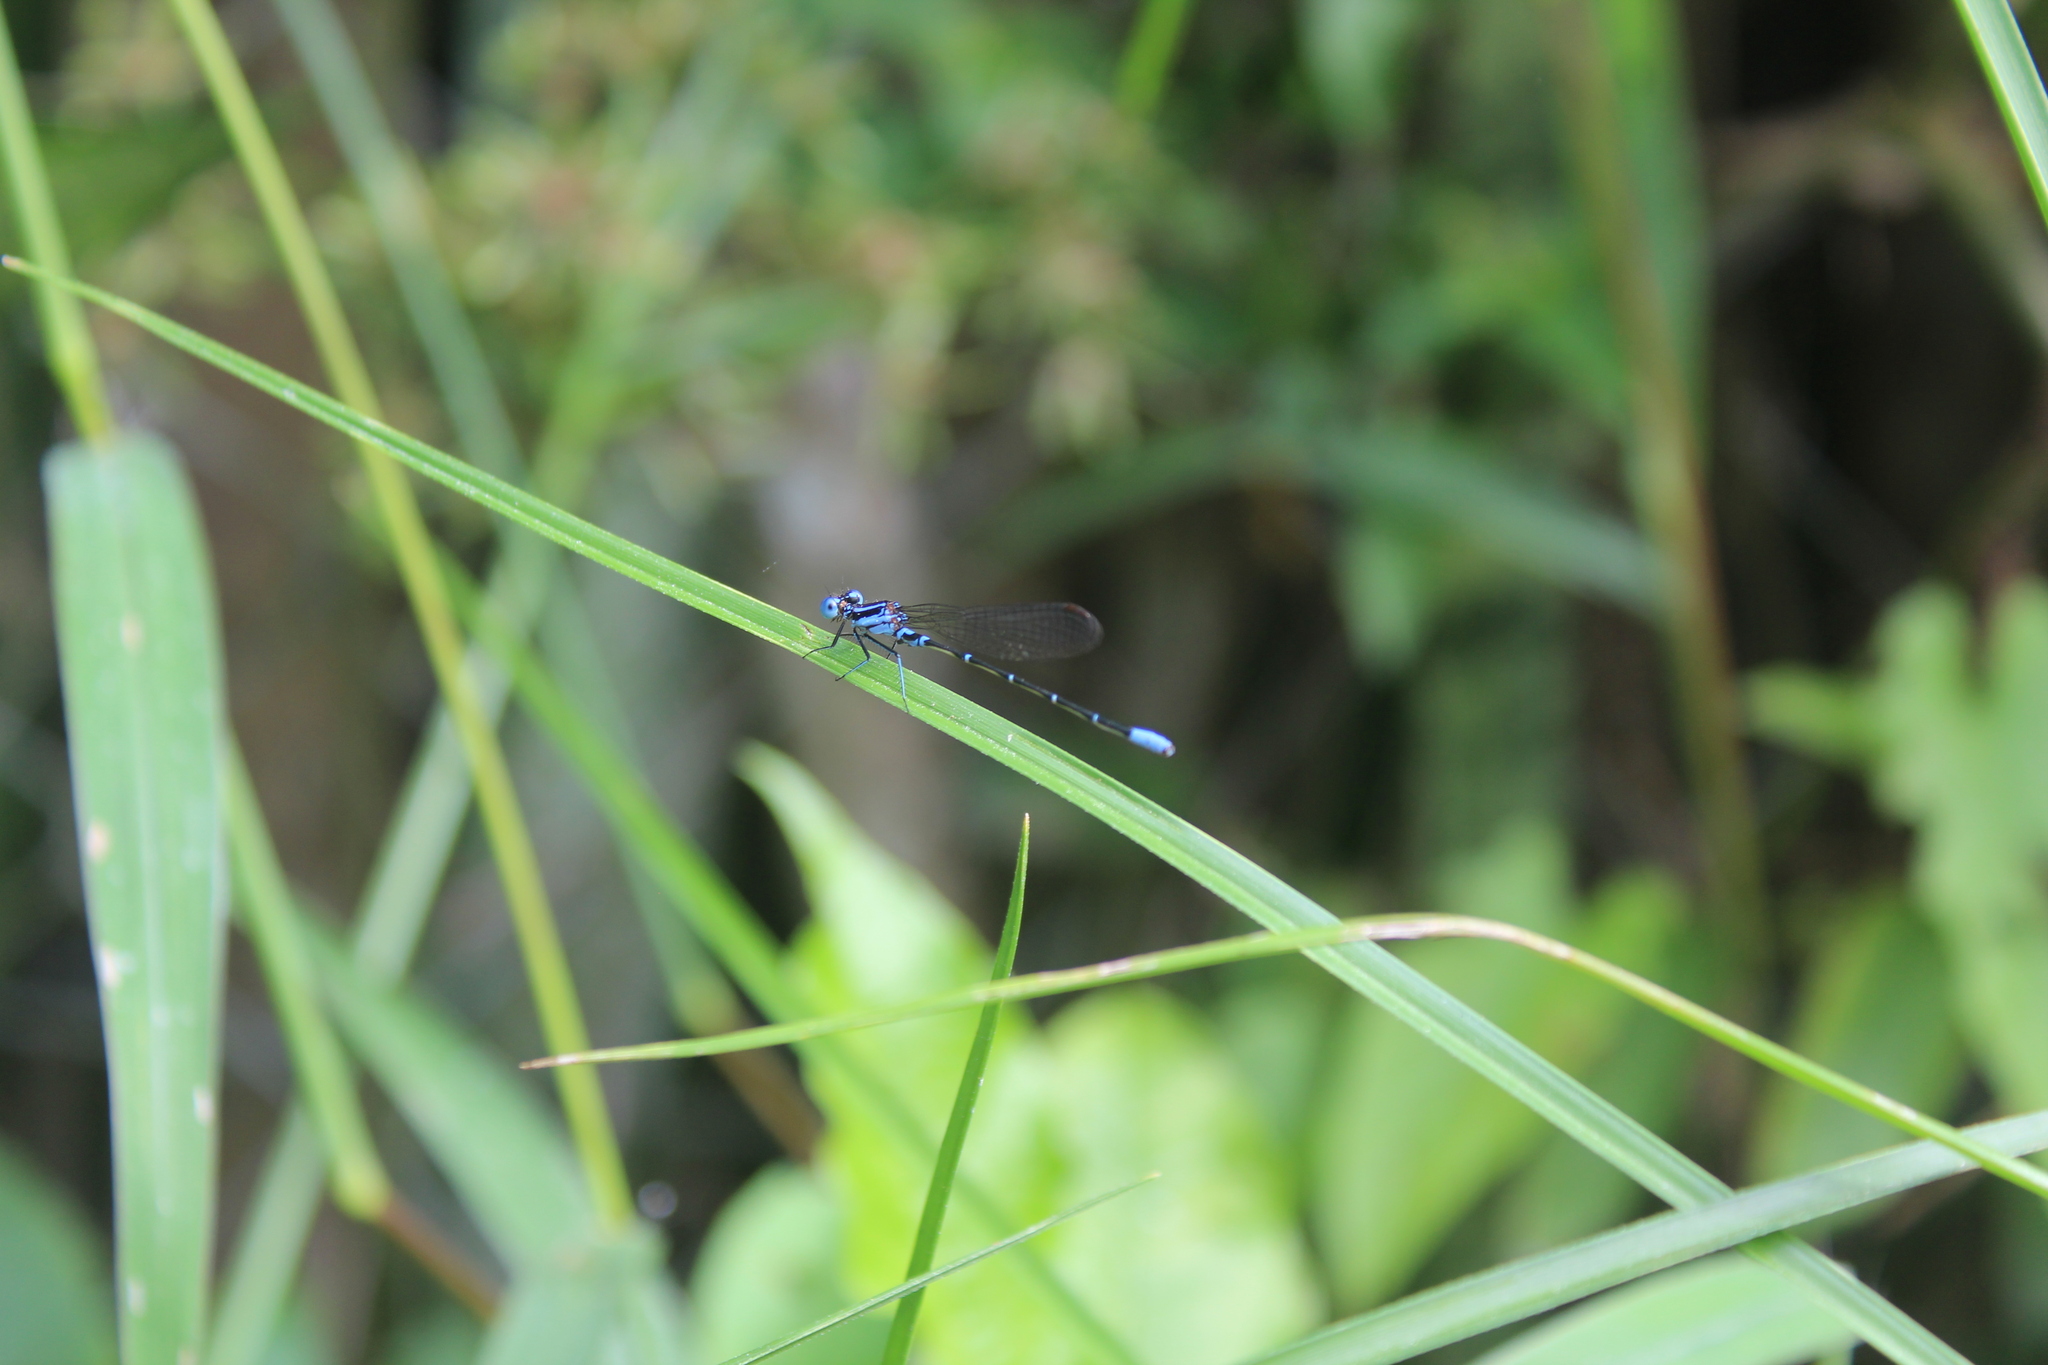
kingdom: Animalia
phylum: Arthropoda
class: Insecta
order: Odonata
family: Coenagrionidae
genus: Argia
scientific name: Argia gaumeri
